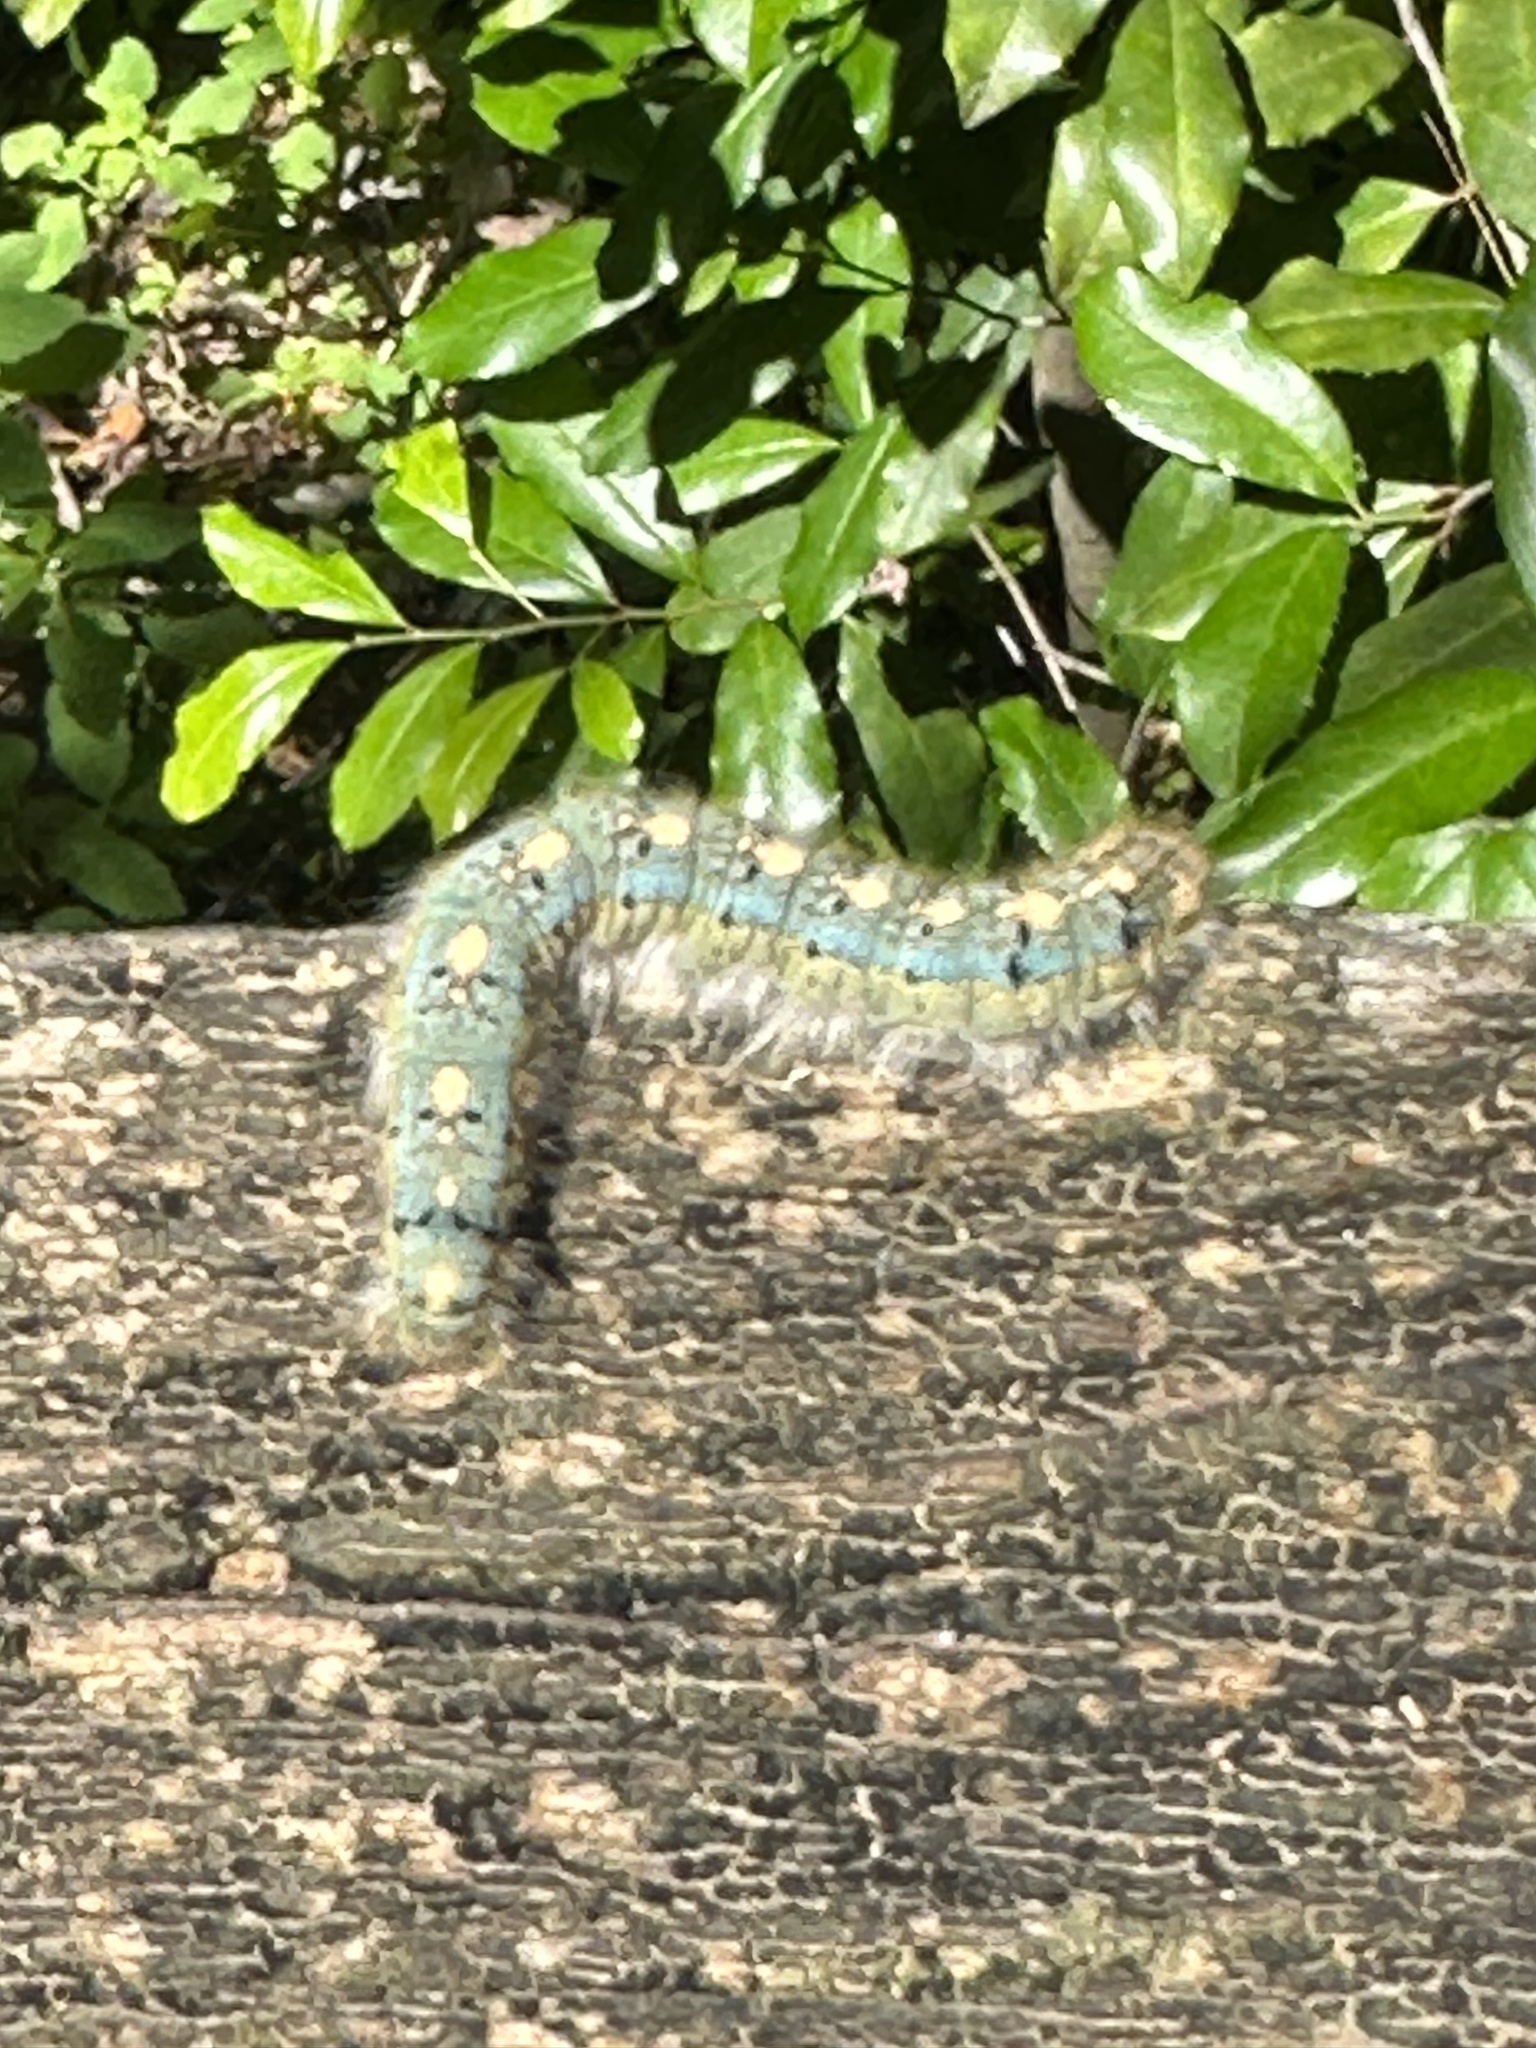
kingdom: Animalia
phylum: Arthropoda
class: Insecta
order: Lepidoptera
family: Lasiocampidae
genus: Malacosoma
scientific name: Malacosoma disstria
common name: Forest tent caterpillar
